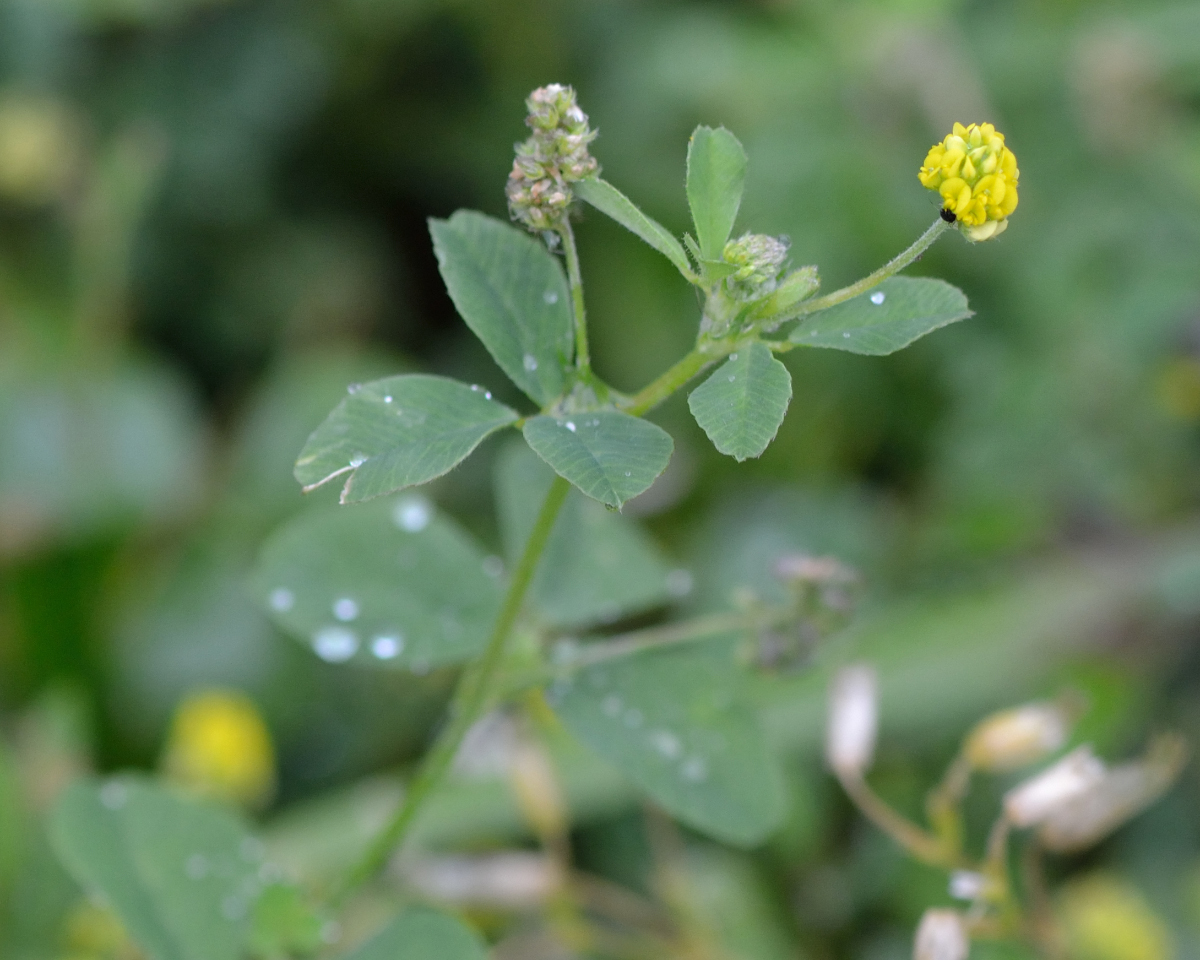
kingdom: Plantae
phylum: Tracheophyta
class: Magnoliopsida
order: Fabales
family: Fabaceae
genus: Medicago
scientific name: Medicago lupulina
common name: Black medick
